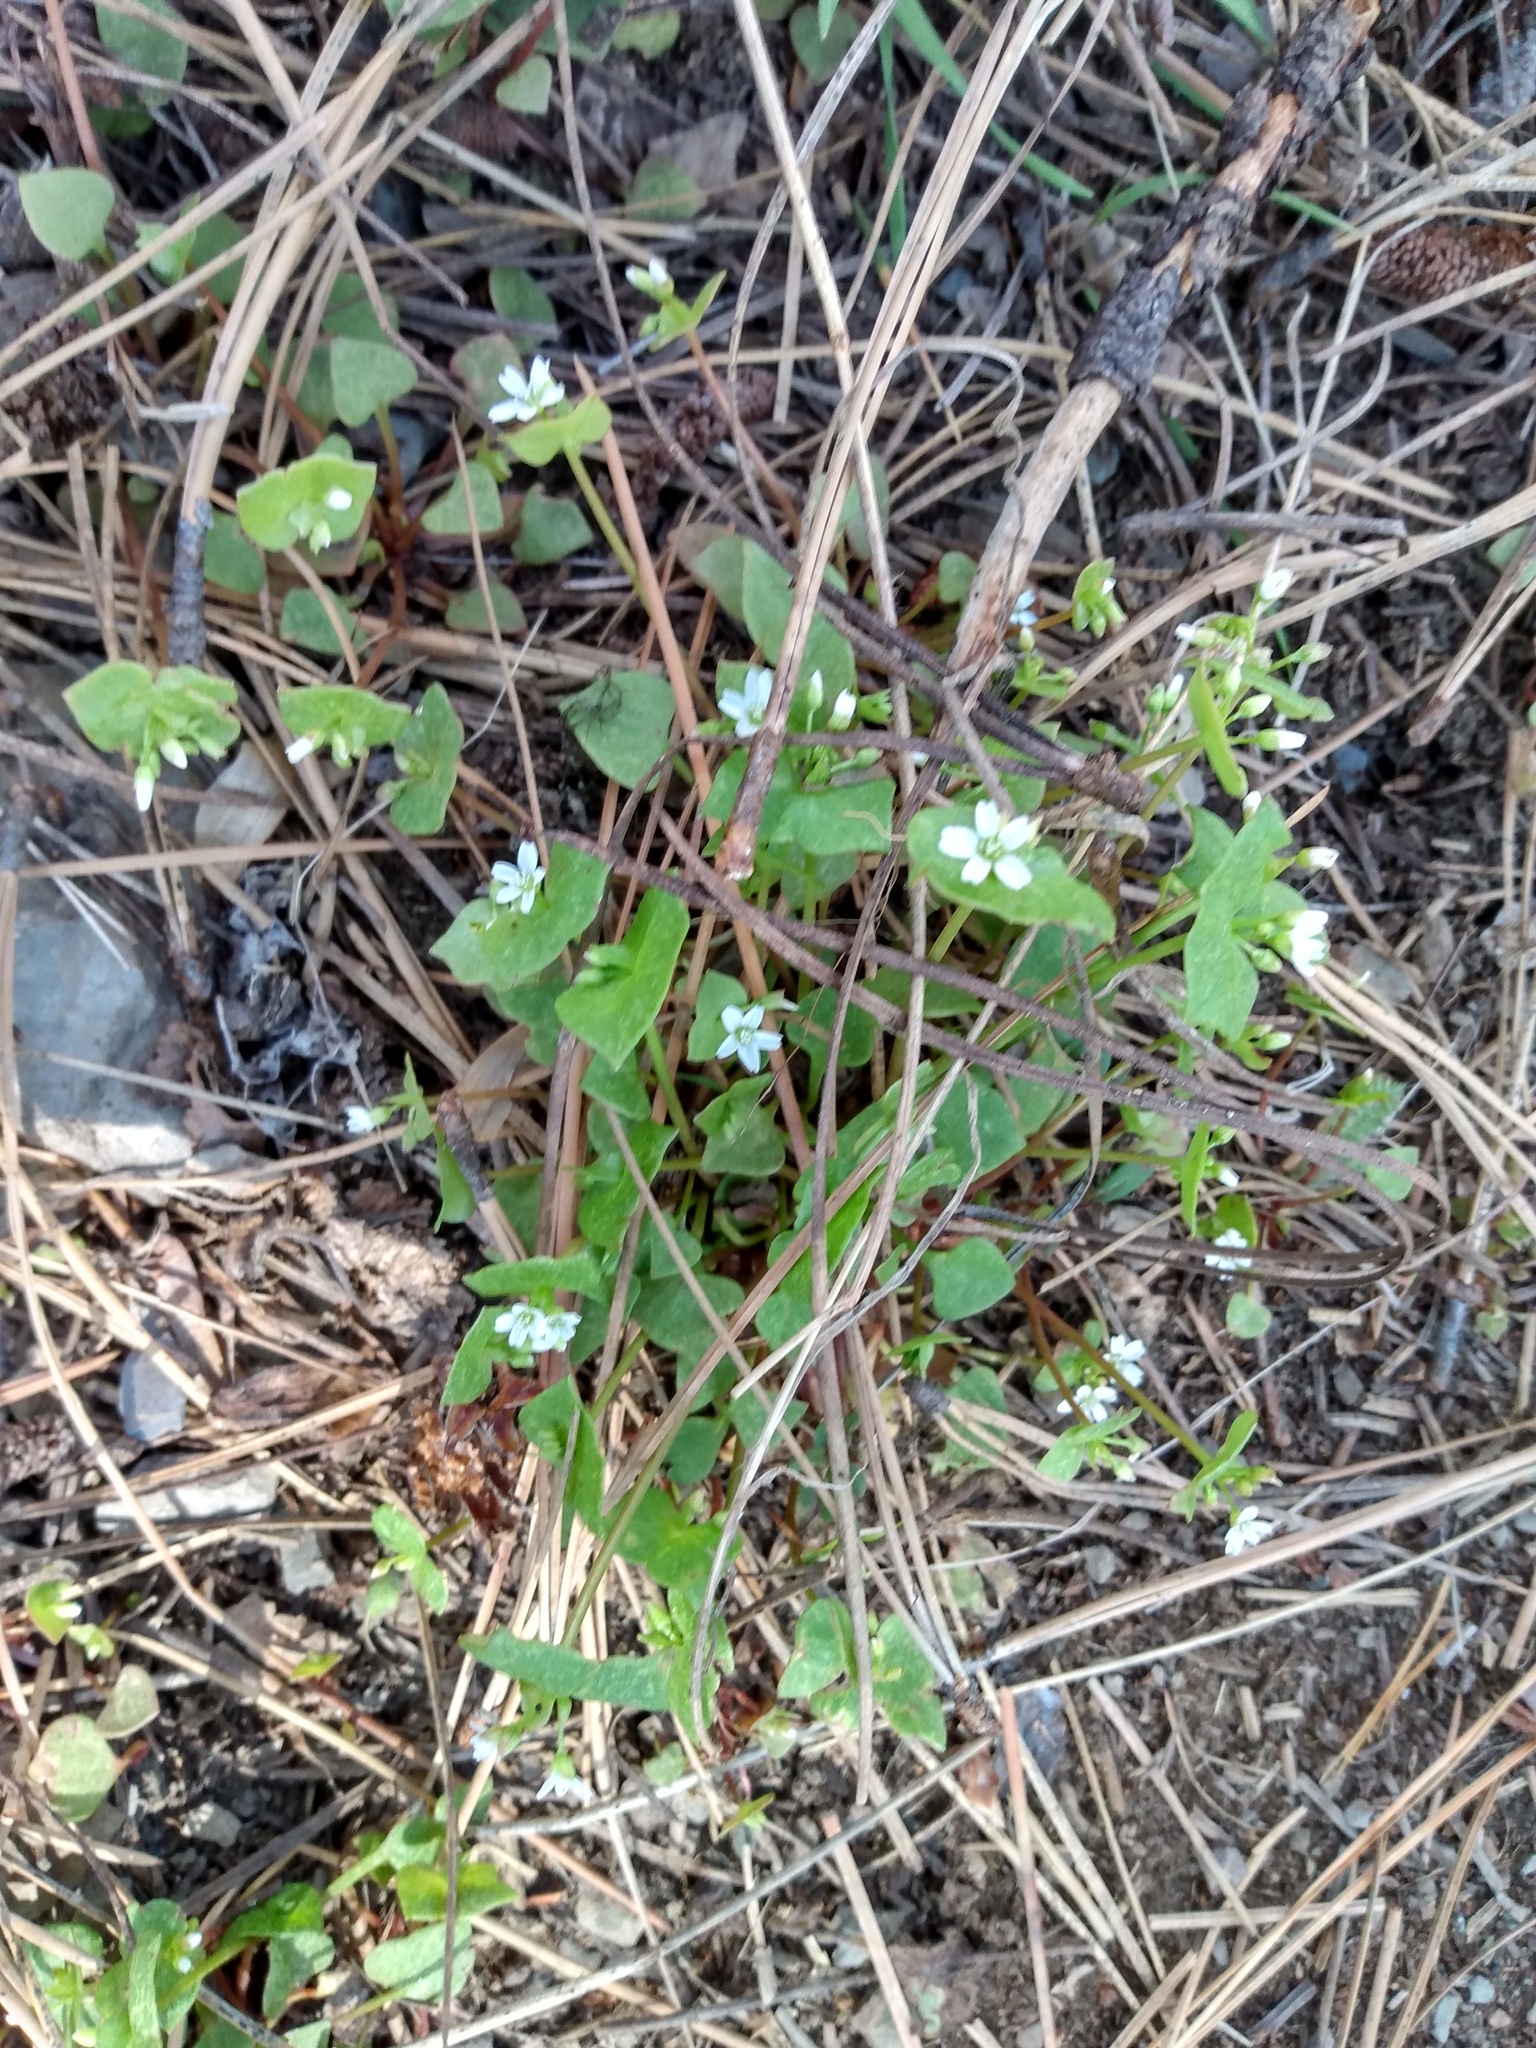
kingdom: Plantae
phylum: Tracheophyta
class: Magnoliopsida
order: Caryophyllales
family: Montiaceae
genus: Claytonia
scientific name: Claytonia rubra
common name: Erubescent miner's-lettuce
